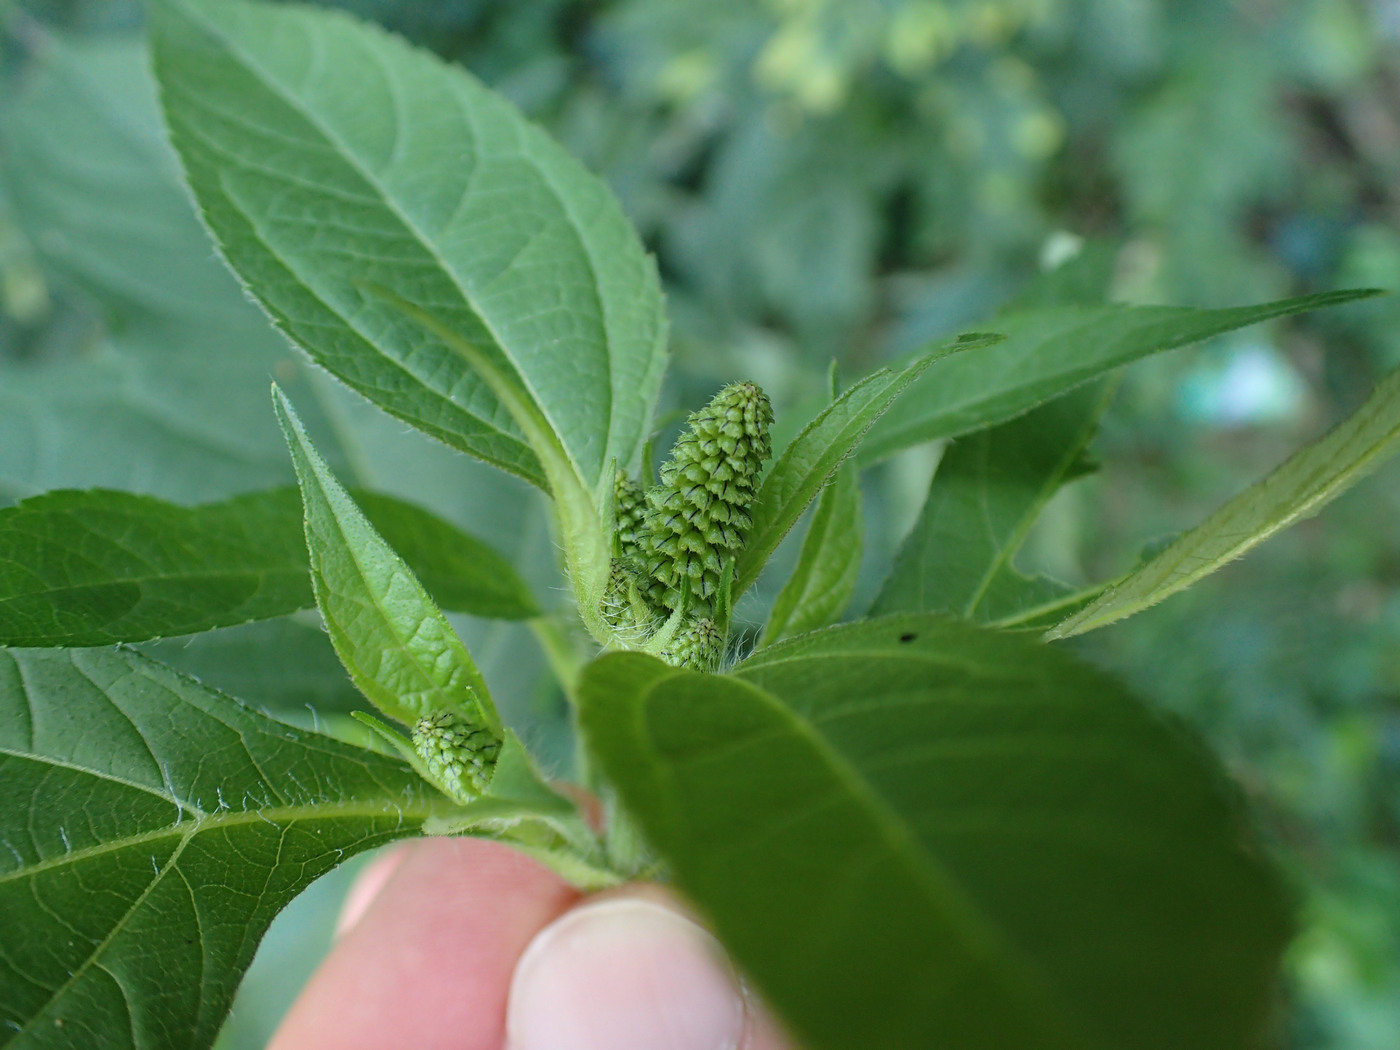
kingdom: Animalia
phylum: Arthropoda
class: Insecta
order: Diptera
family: Agromyzidae
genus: Agromyza
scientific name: Agromyza ambrosivora
